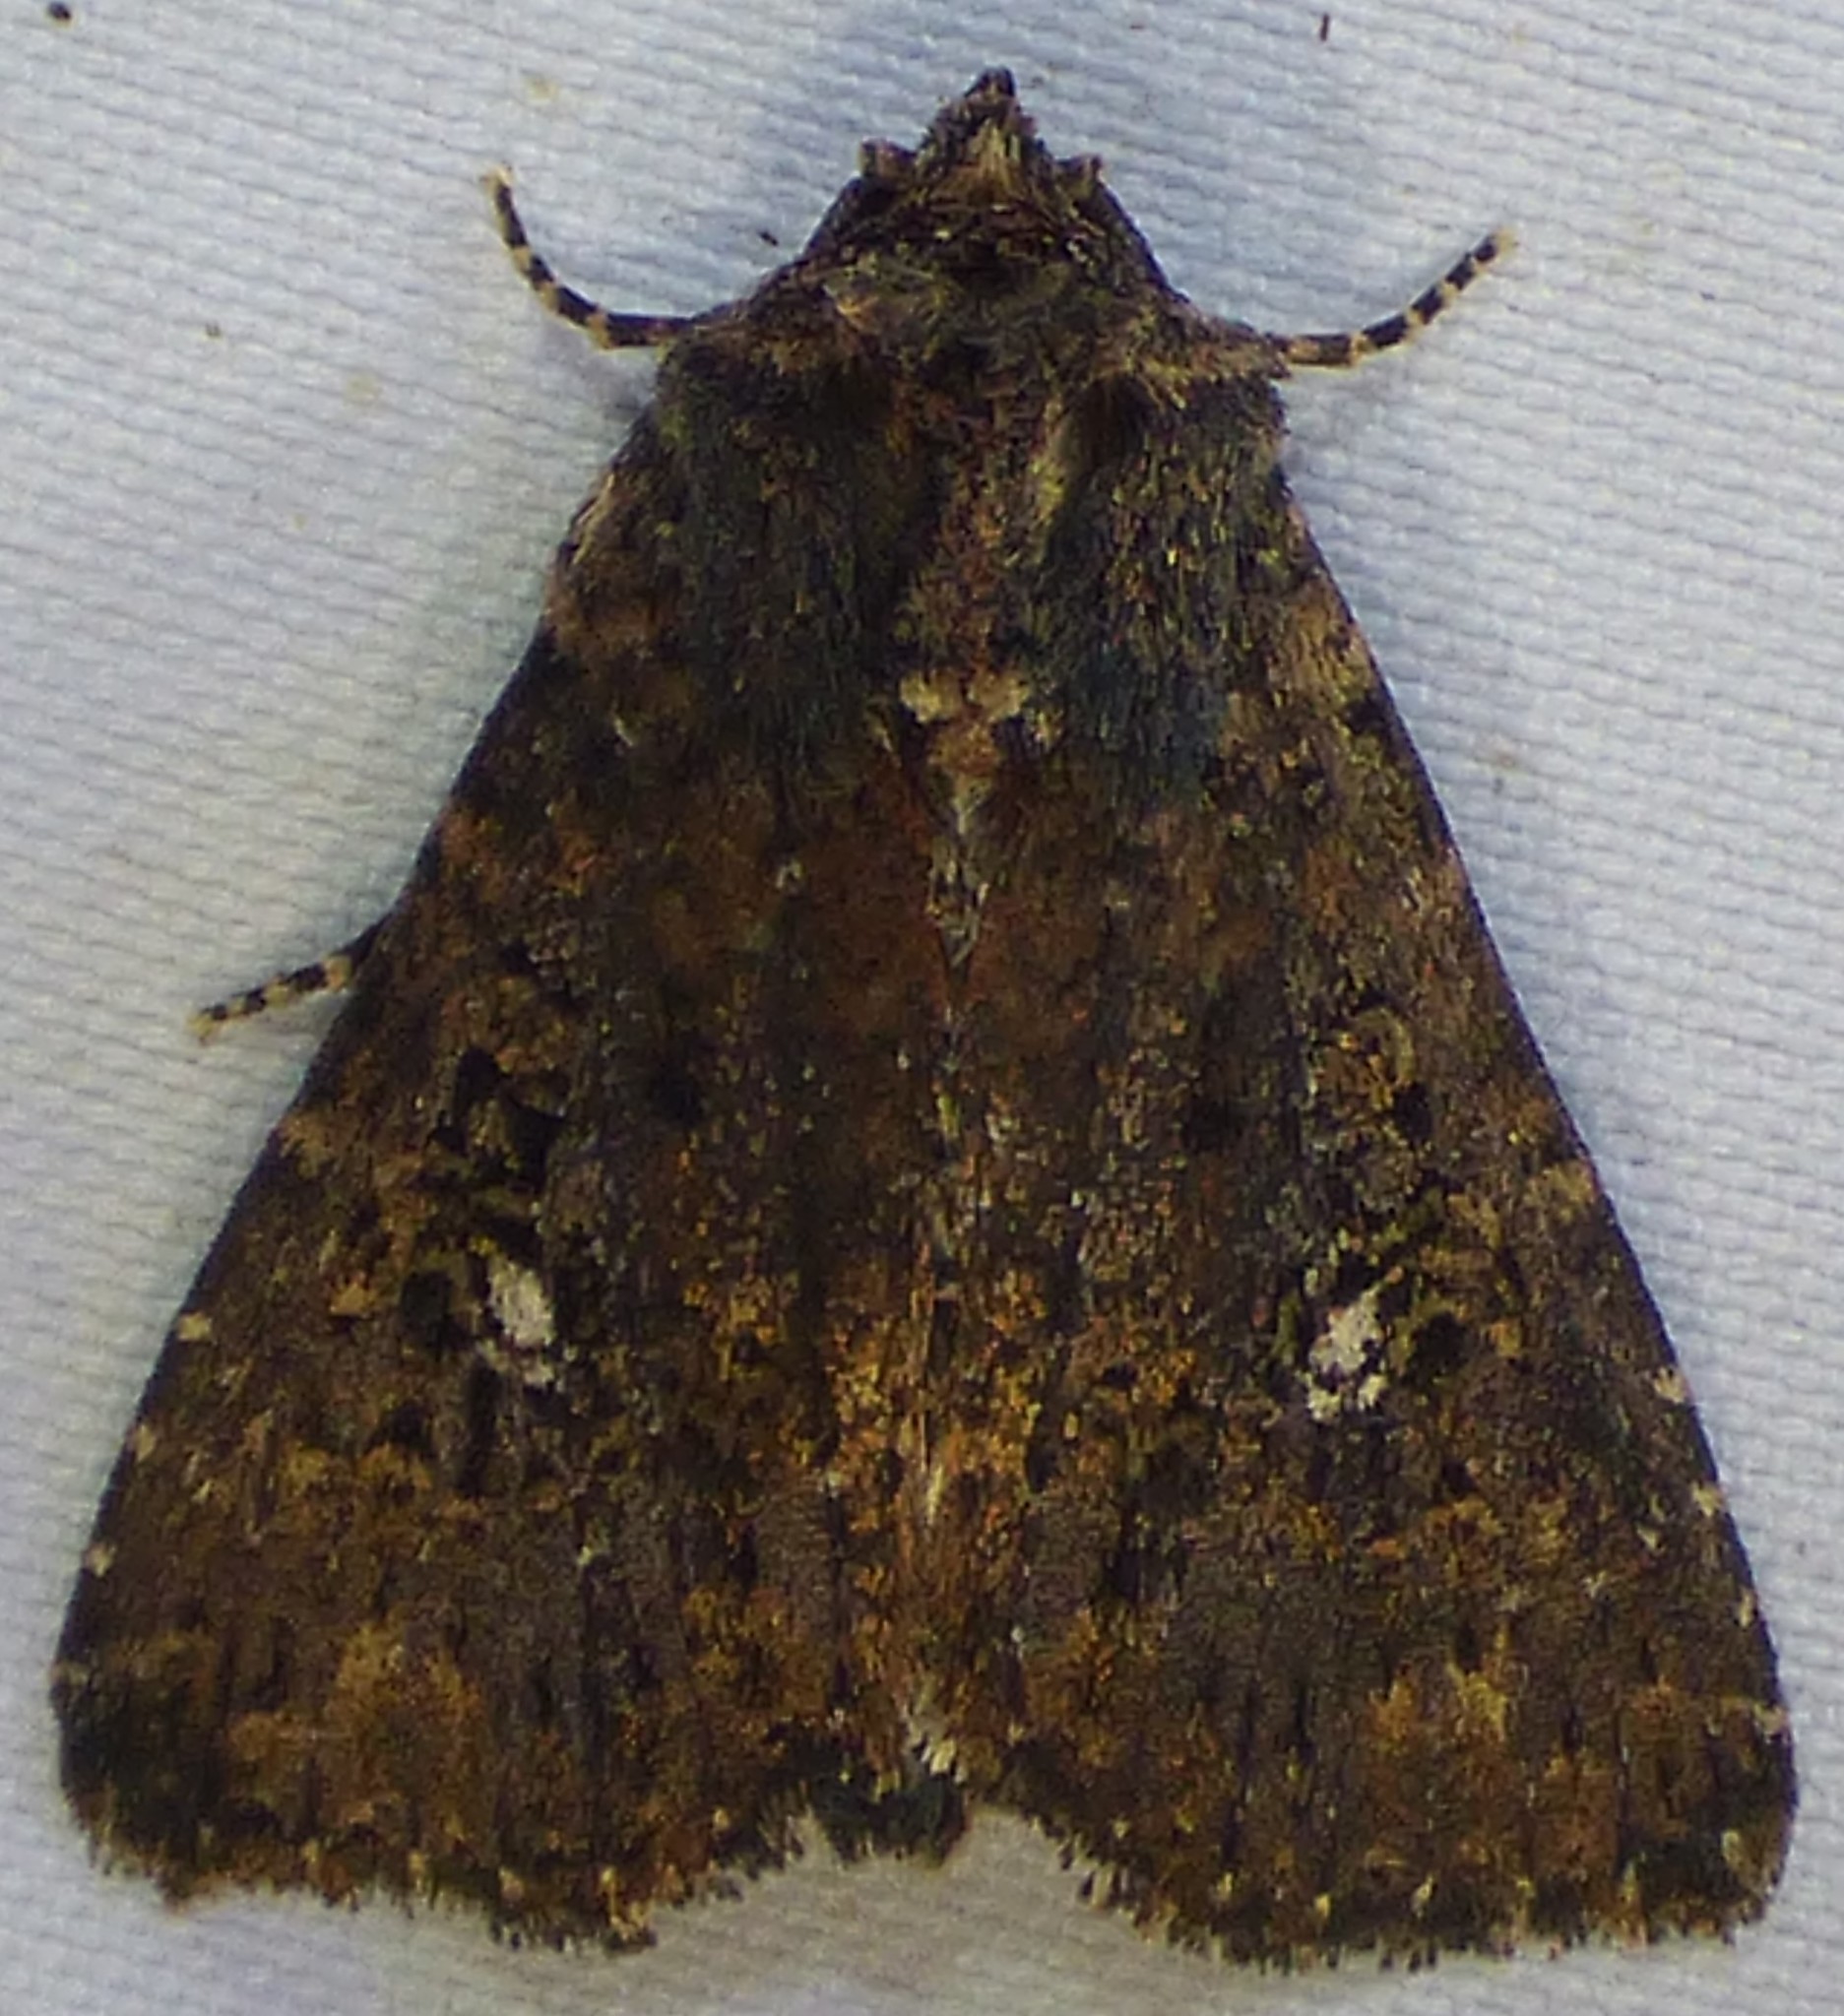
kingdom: Animalia
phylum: Arthropoda
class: Insecta
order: Lepidoptera
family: Noctuidae
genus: Condica
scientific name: Condica vecors
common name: Dusky groundling
